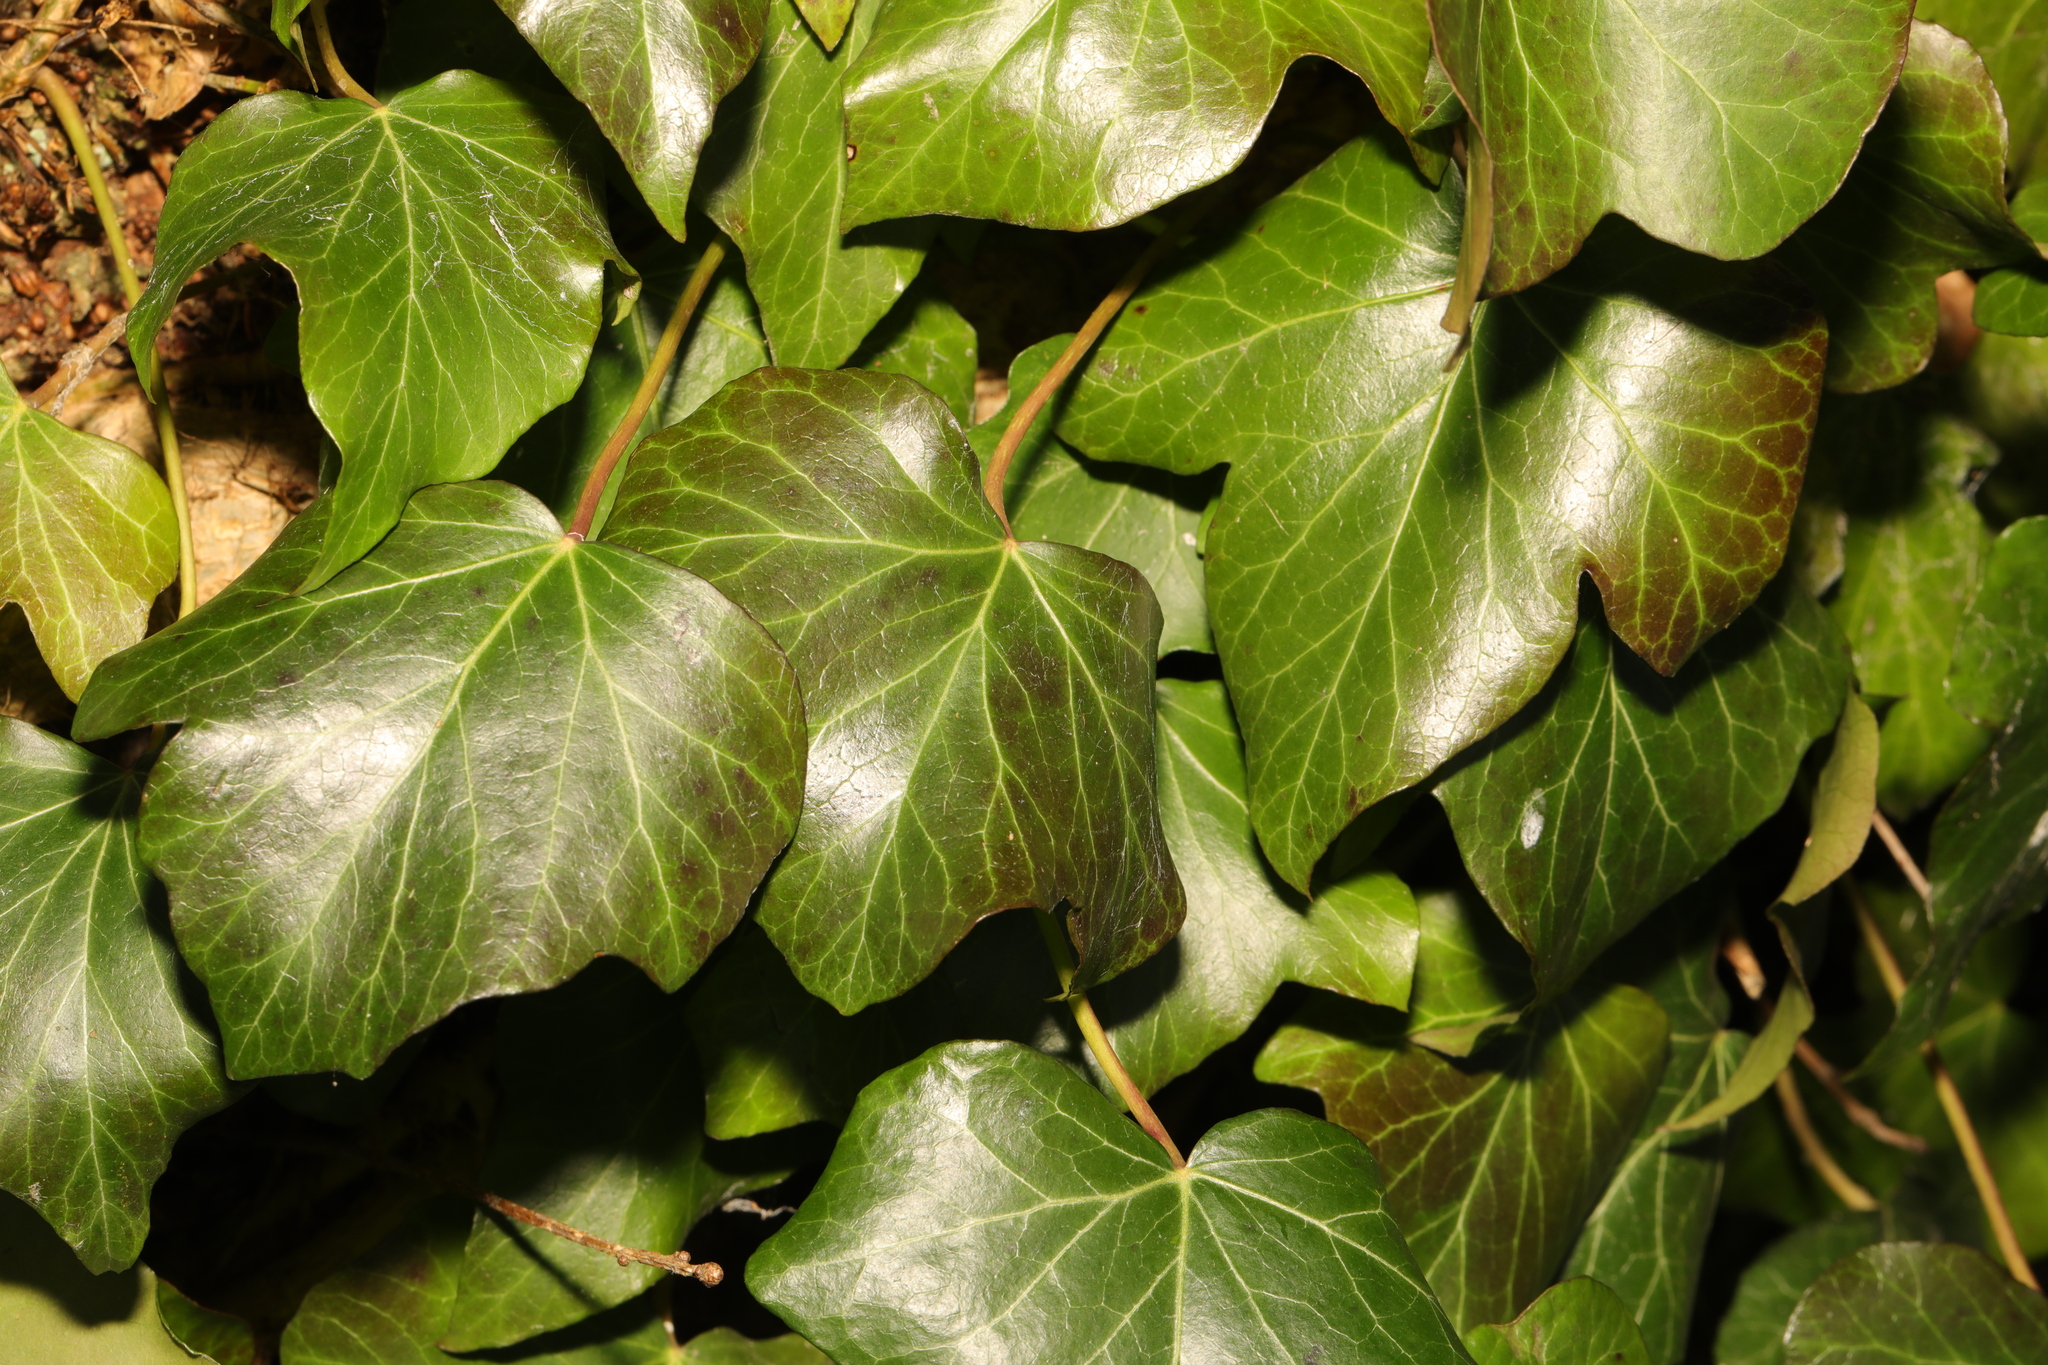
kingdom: Plantae
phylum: Tracheophyta
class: Magnoliopsida
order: Apiales
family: Araliaceae
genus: Hedera
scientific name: Hedera helix
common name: Ivy
